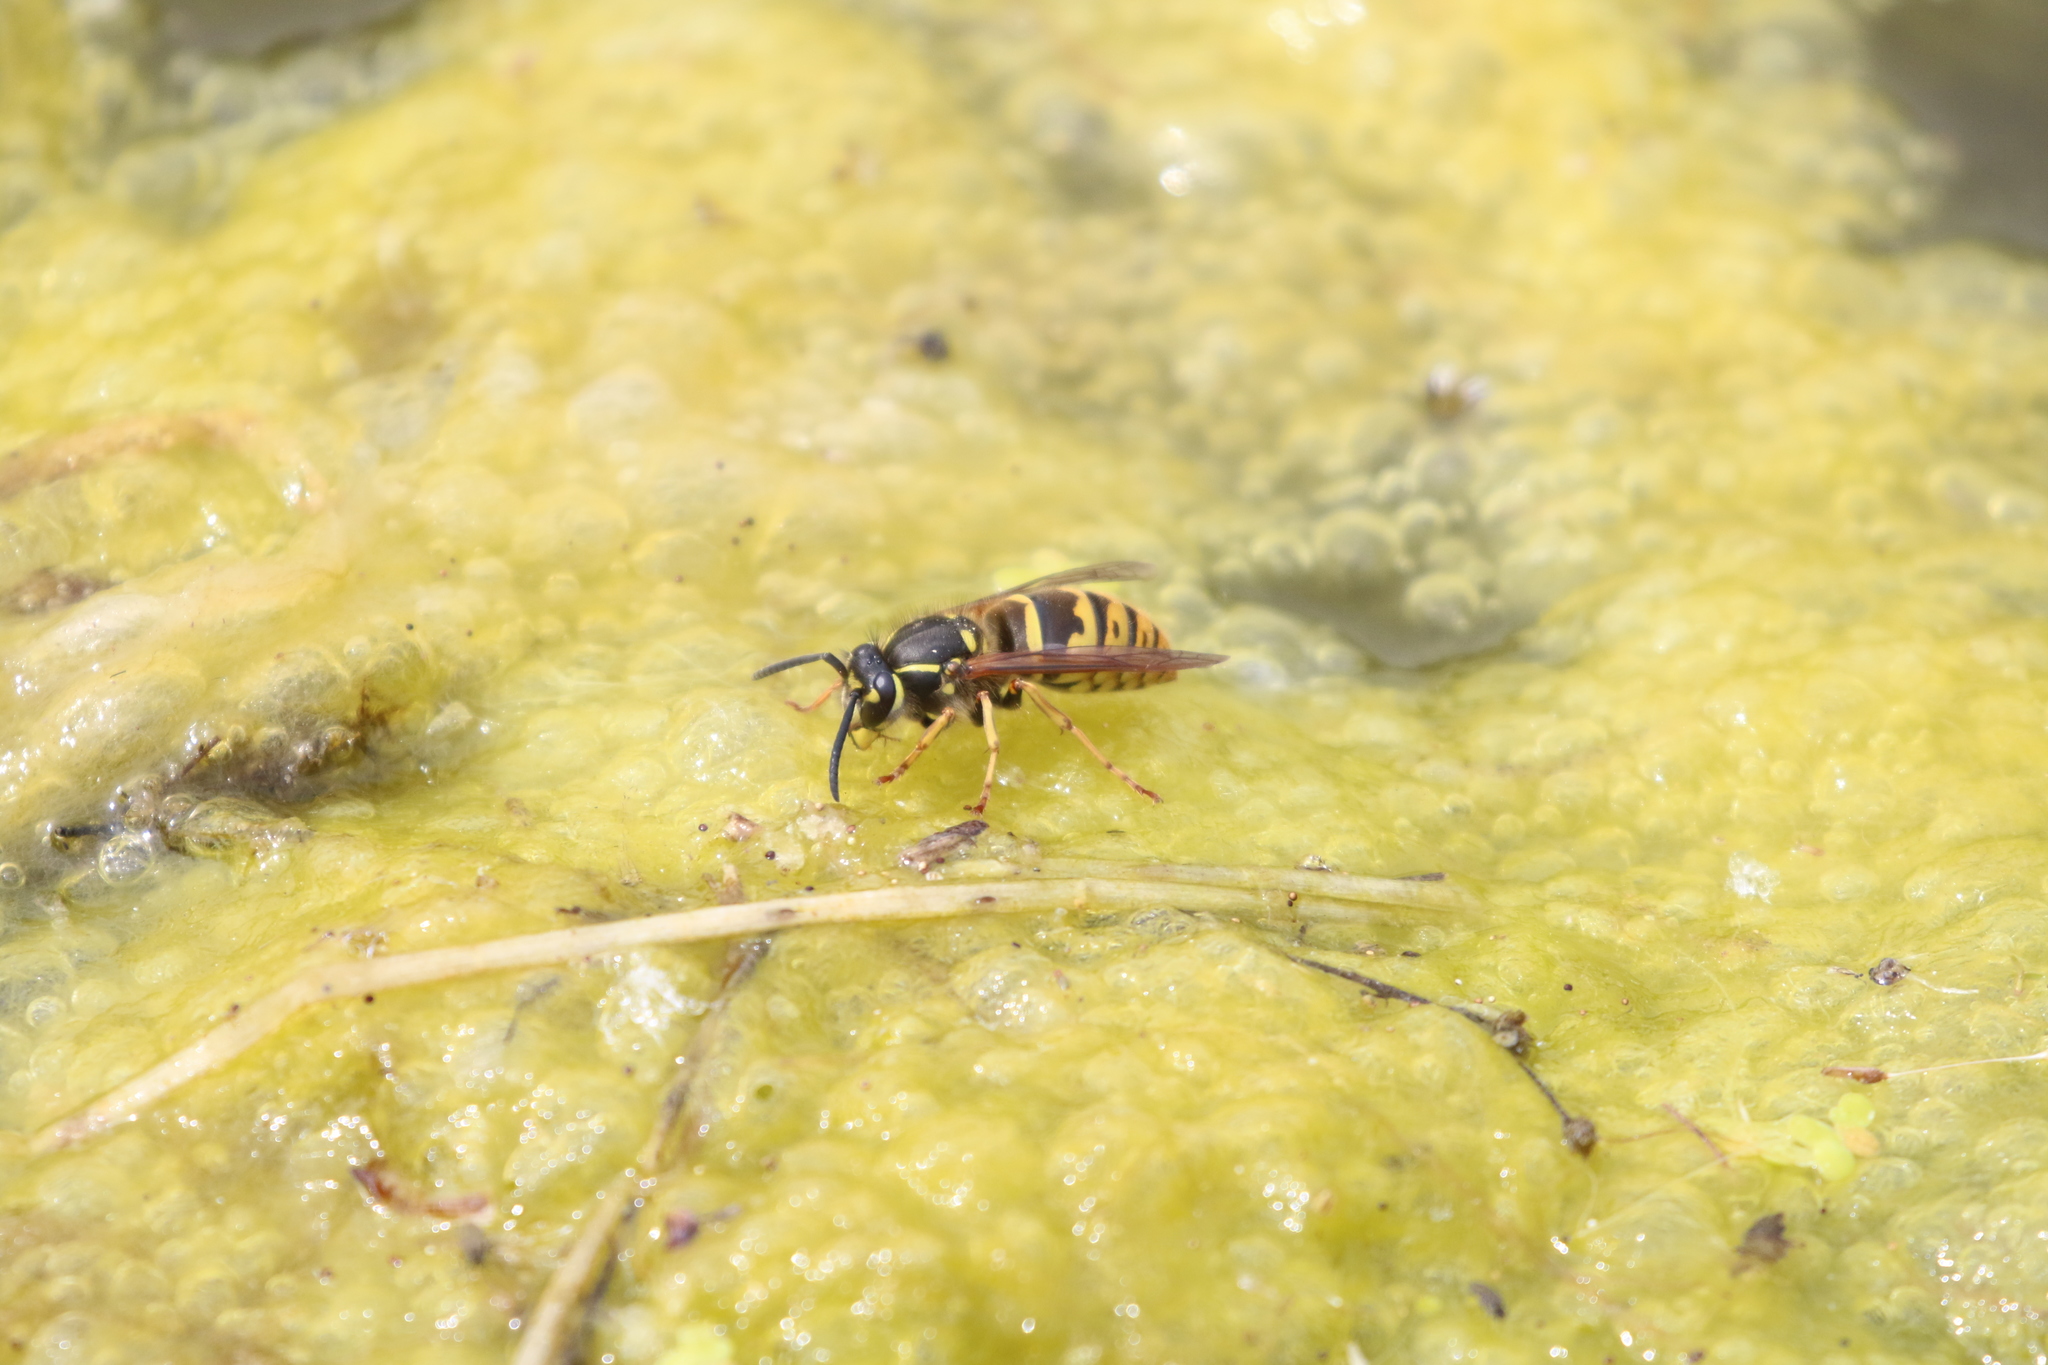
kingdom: Animalia
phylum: Arthropoda
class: Insecta
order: Hymenoptera
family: Vespidae
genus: Vespula
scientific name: Vespula vulgaris
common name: Common wasp
